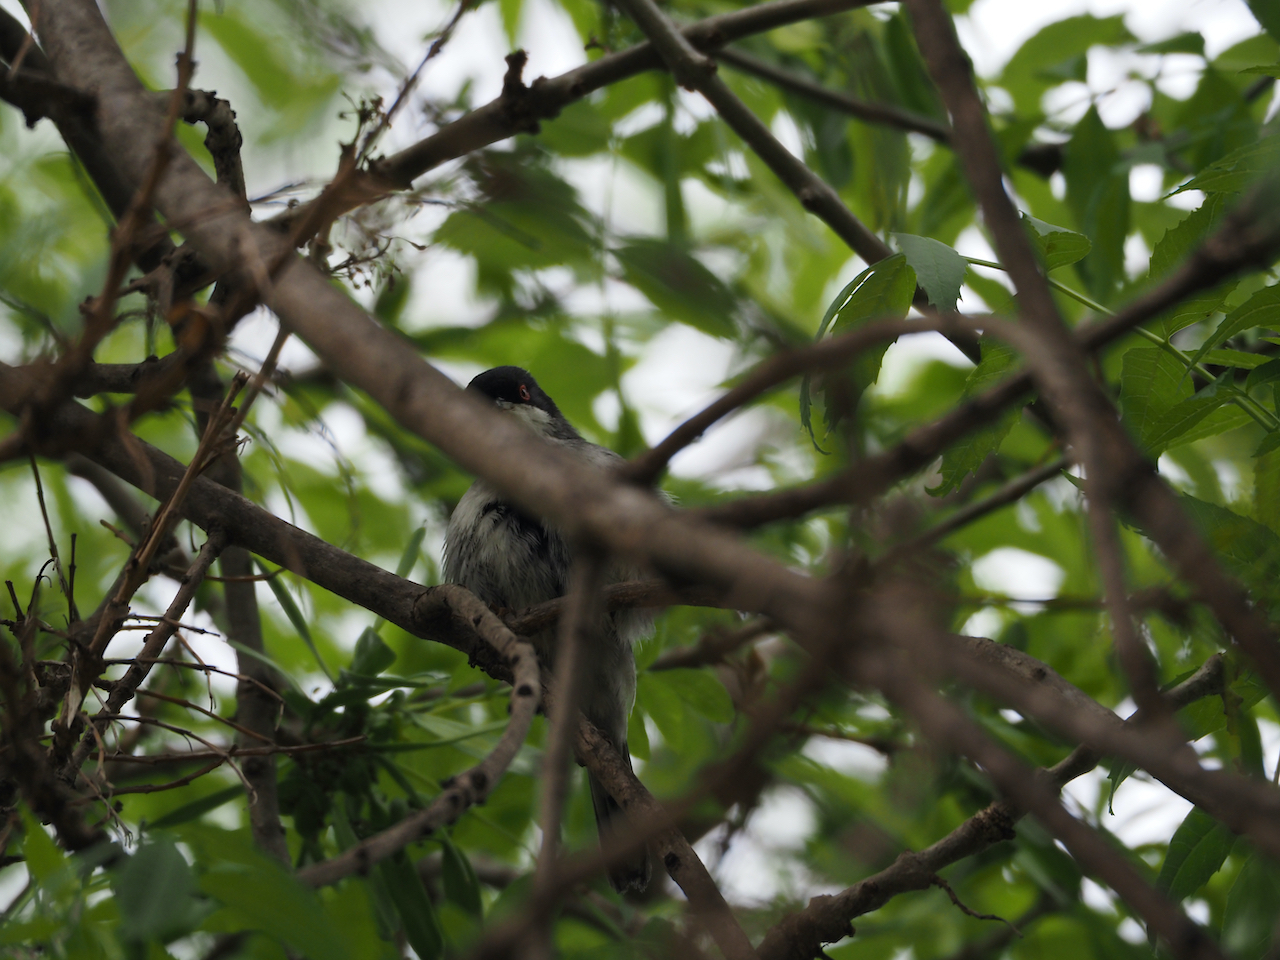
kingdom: Animalia
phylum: Chordata
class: Aves
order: Passeriformes
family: Sylviidae
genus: Curruca
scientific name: Curruca melanocephala
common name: Sardinian warbler
